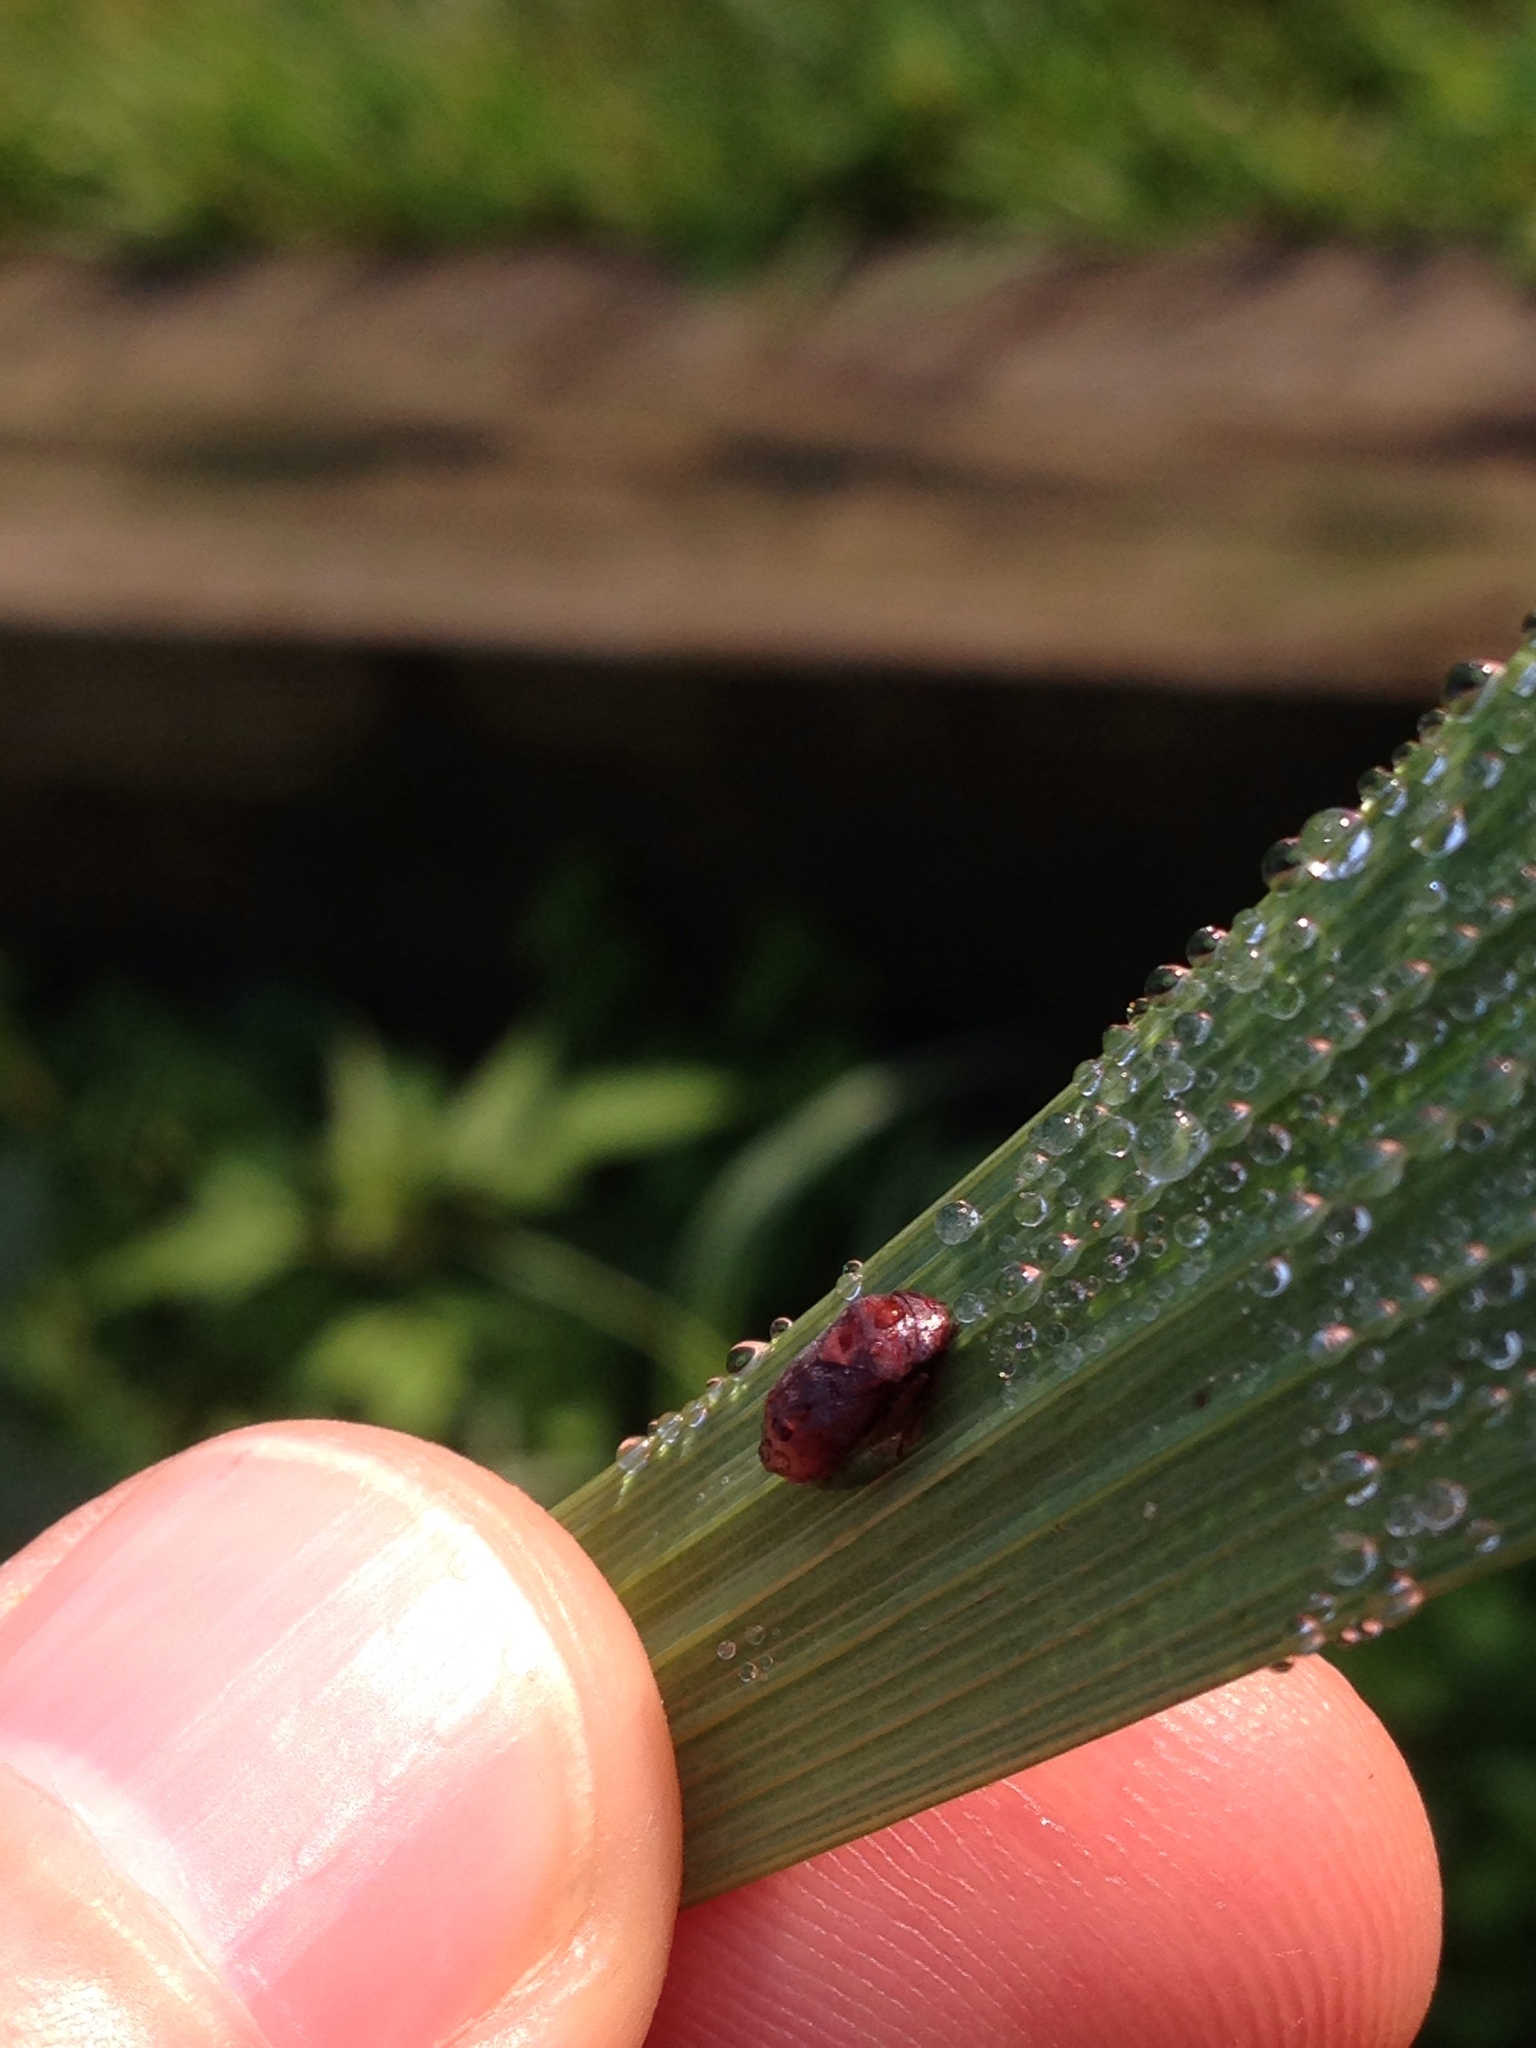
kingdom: Animalia
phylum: Arthropoda
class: Insecta
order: Hemiptera
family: Cicadellidae
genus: Penthimia
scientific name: Penthimia americana
